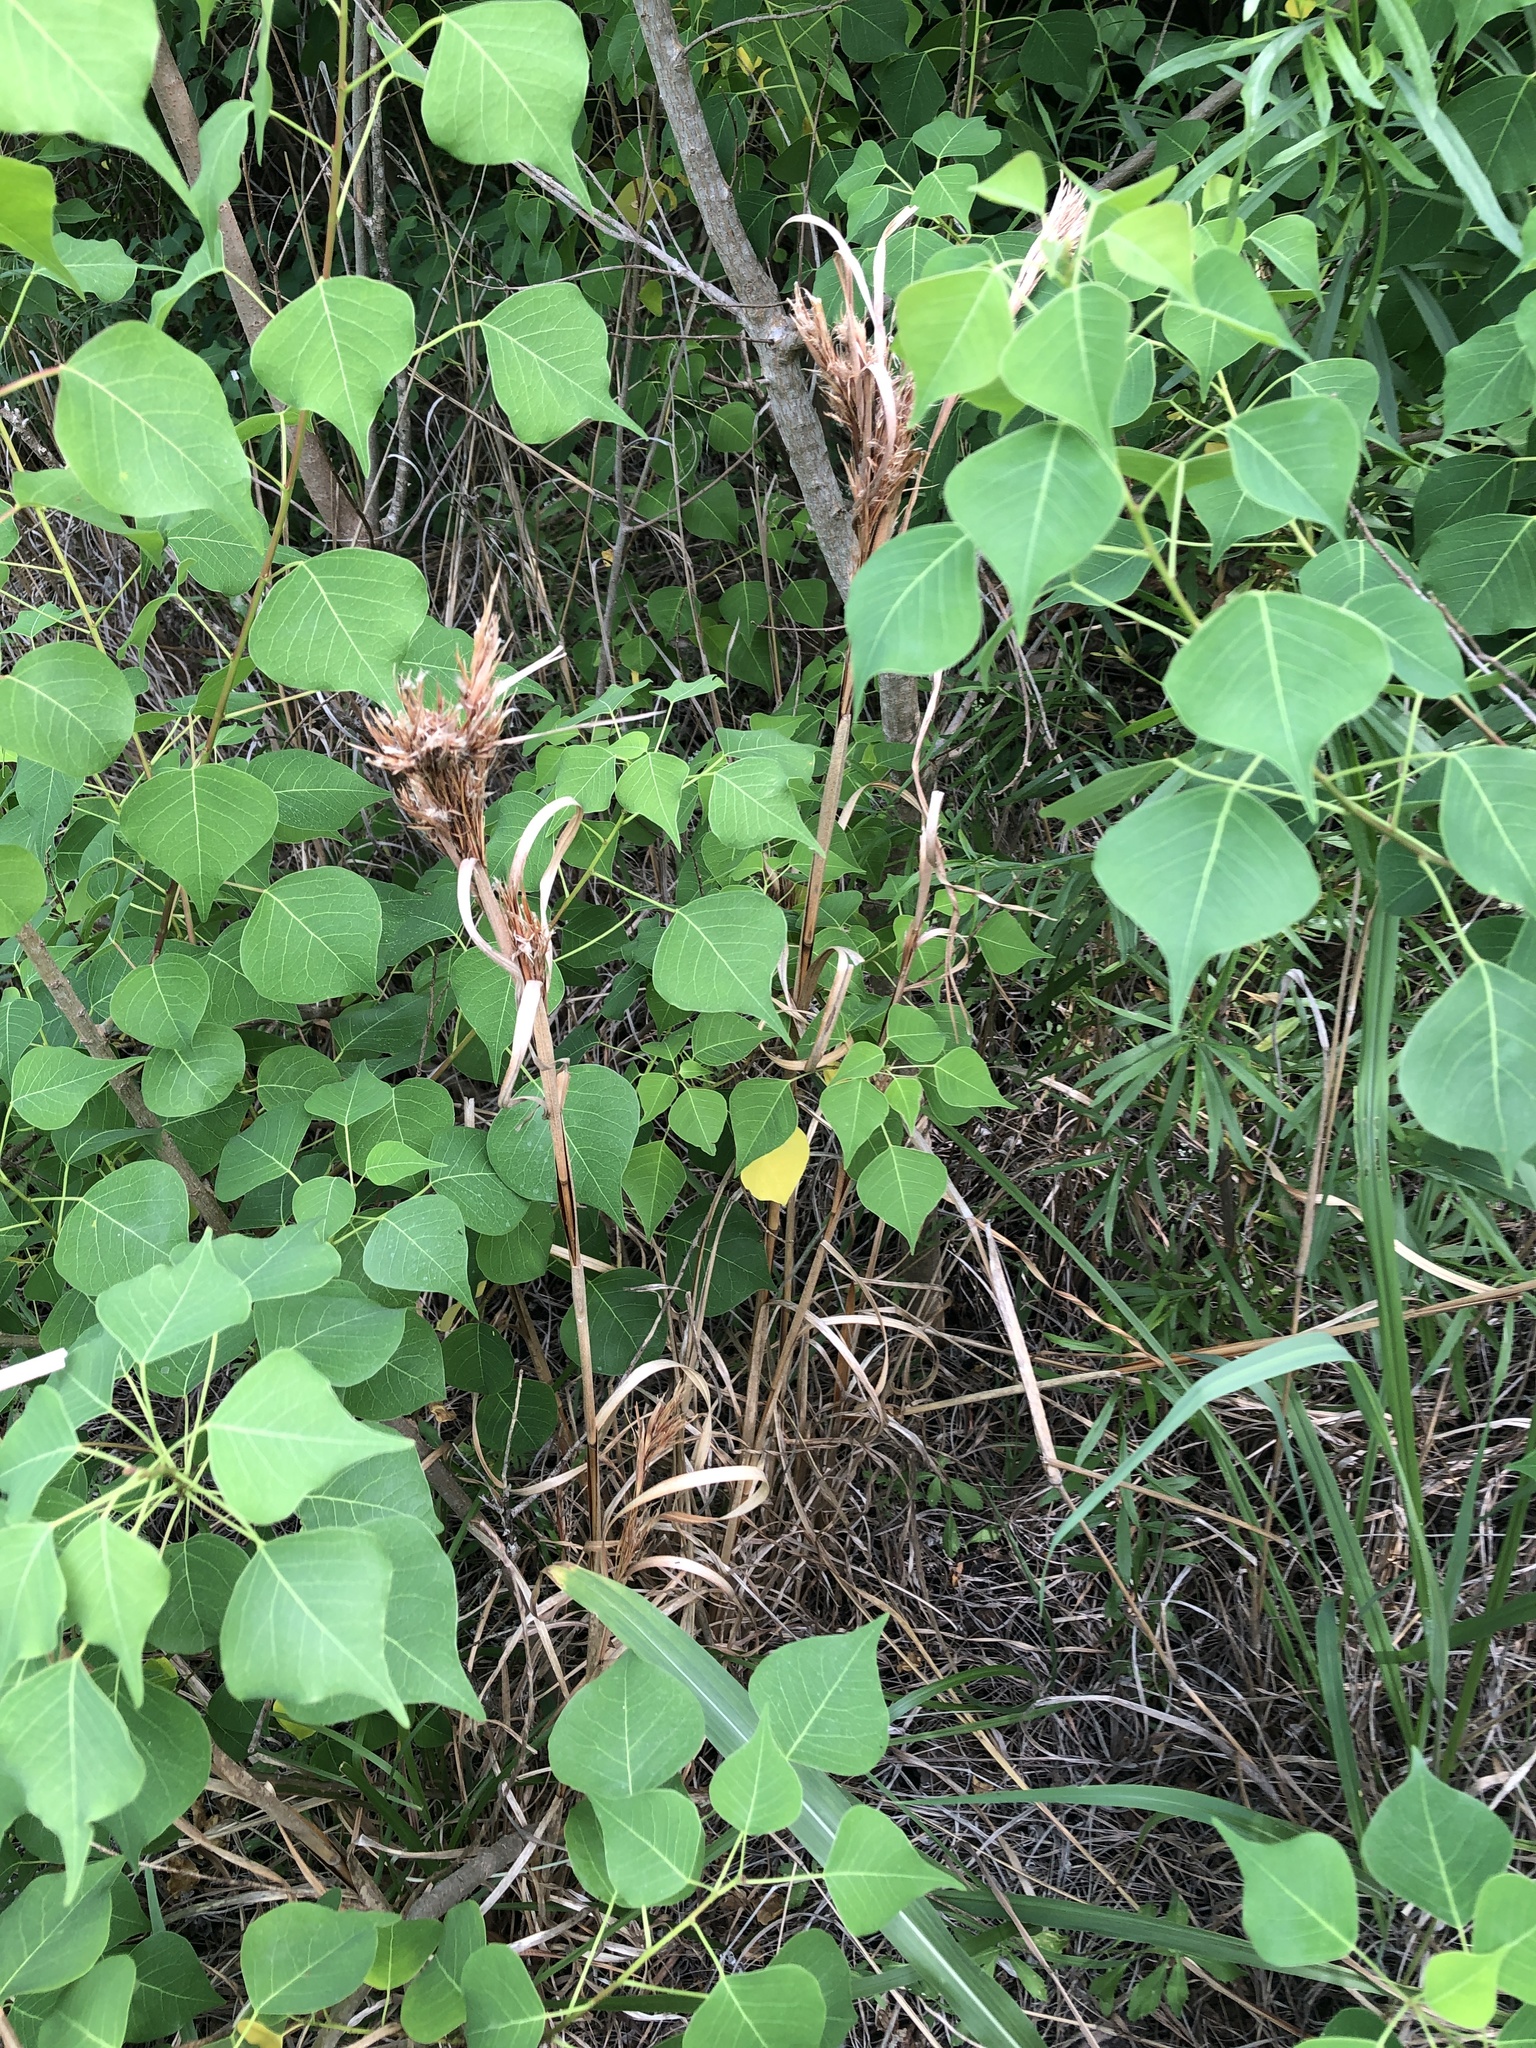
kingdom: Plantae
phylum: Tracheophyta
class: Liliopsida
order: Poales
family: Poaceae
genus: Andropogon
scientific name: Andropogon tenuispatheus
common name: Bushy bluestem
